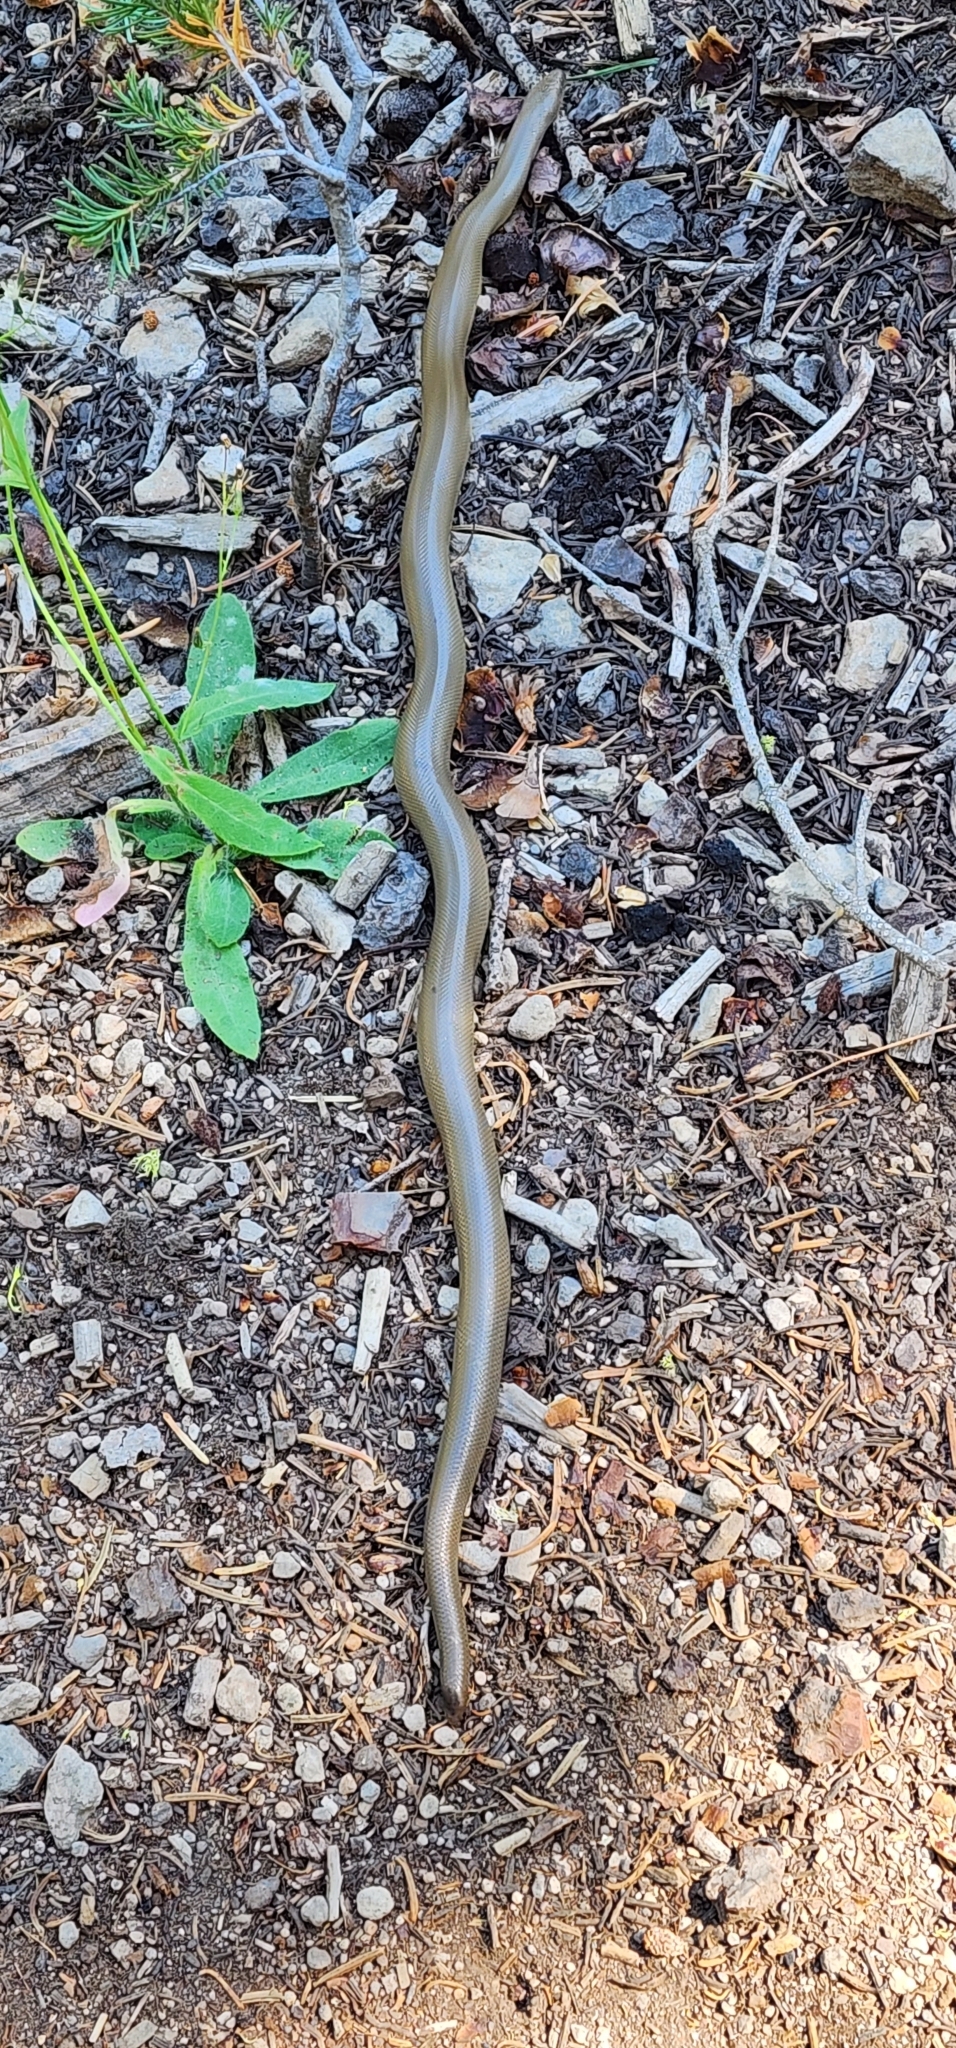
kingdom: Animalia
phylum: Chordata
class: Squamata
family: Boidae
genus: Charina
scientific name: Charina bottae
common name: Northern rubber boa
